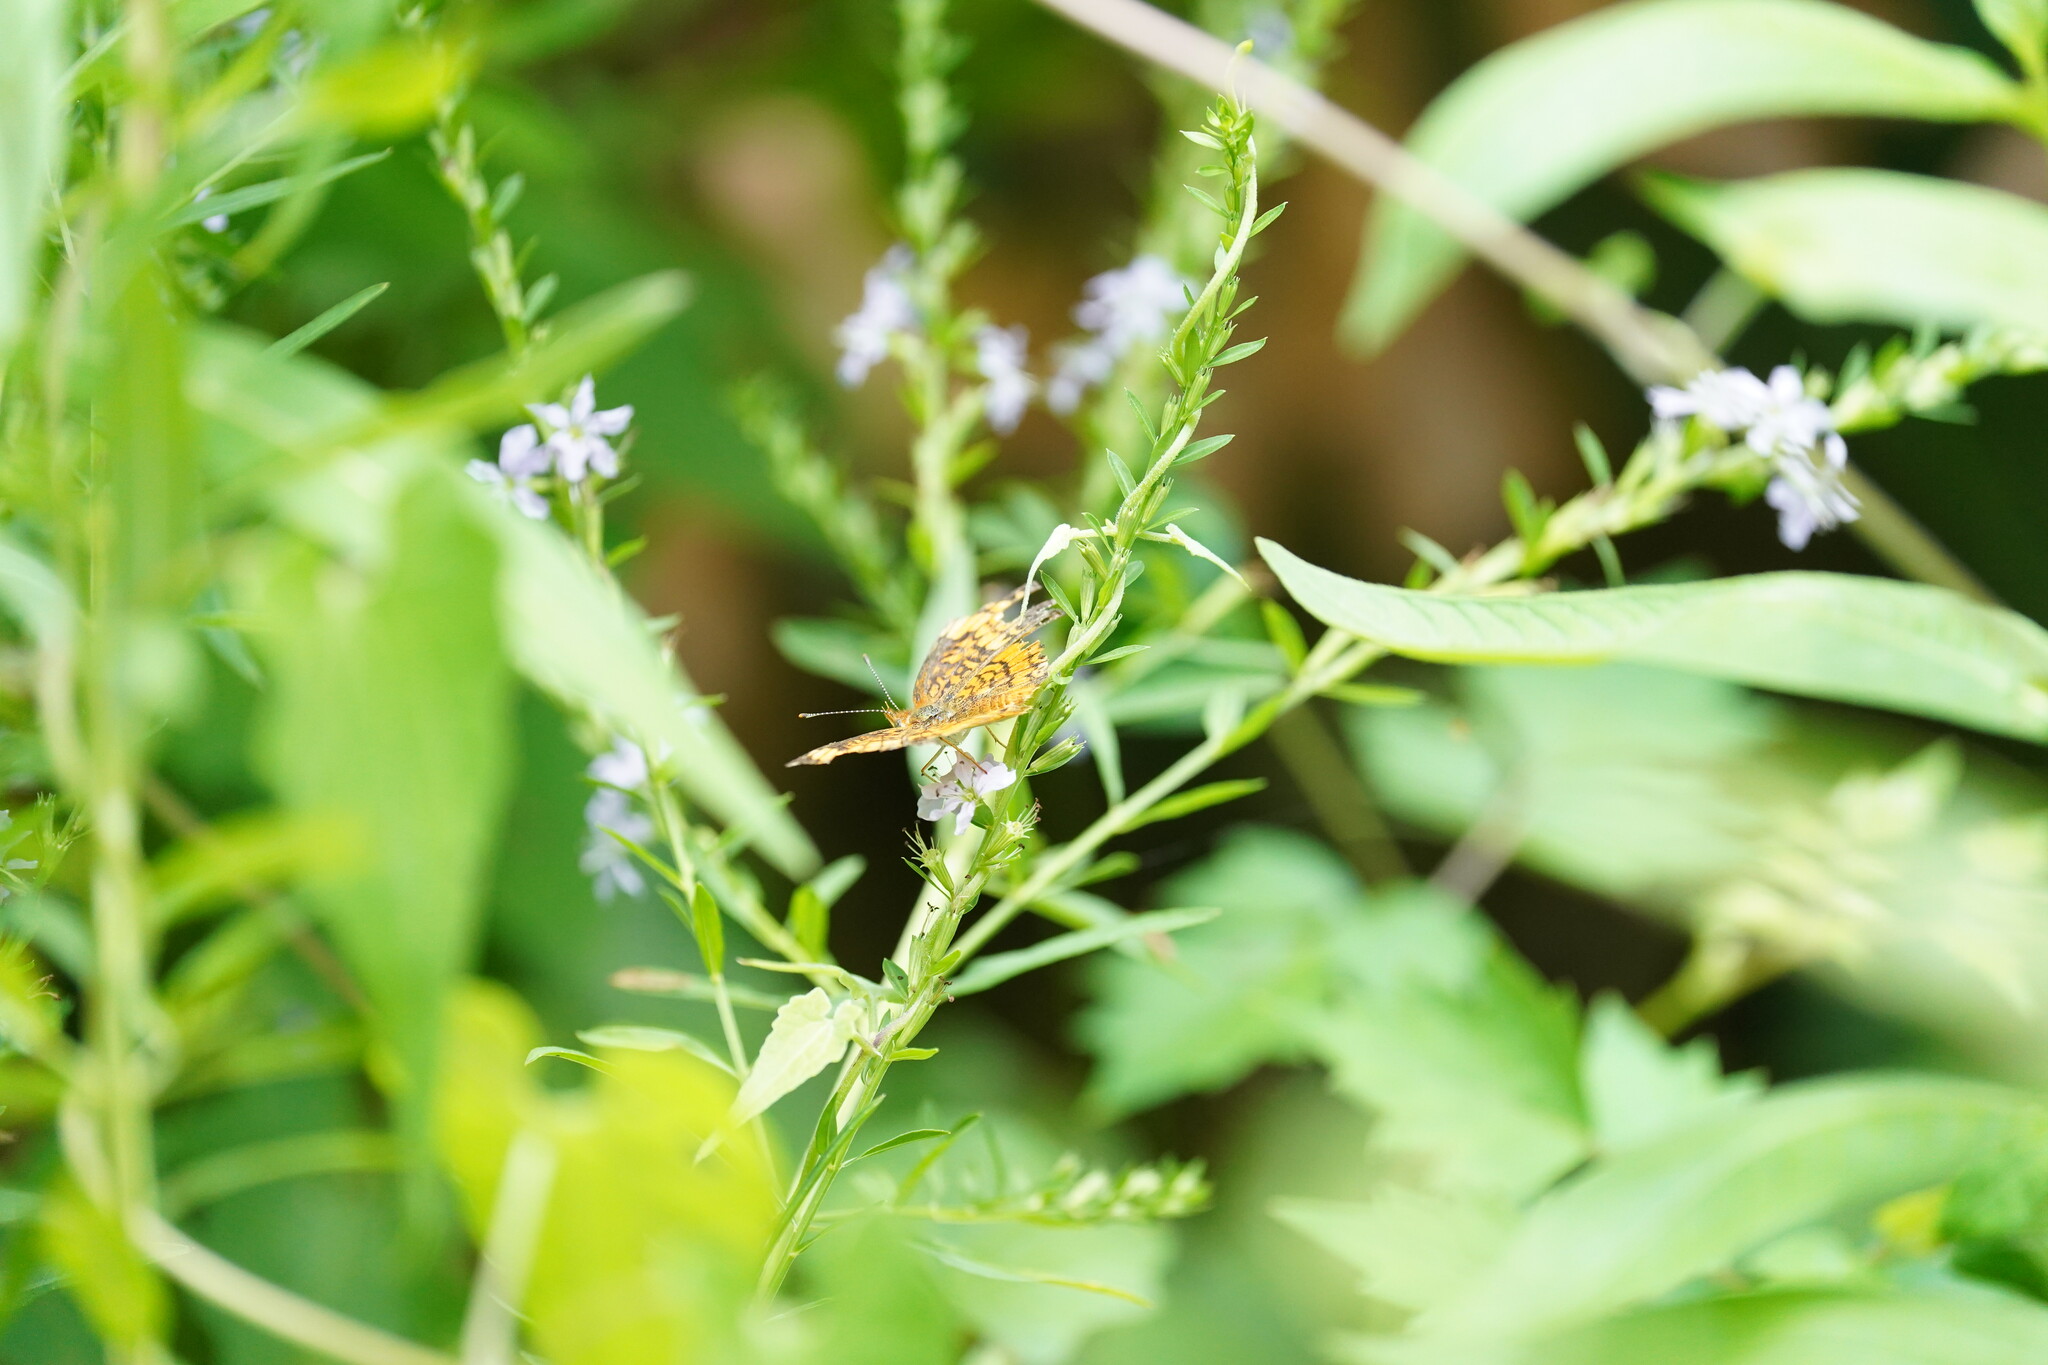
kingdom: Animalia
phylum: Arthropoda
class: Insecta
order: Lepidoptera
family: Nymphalidae
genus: Euptoieta
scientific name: Euptoieta claudia
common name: Variegated fritillary
